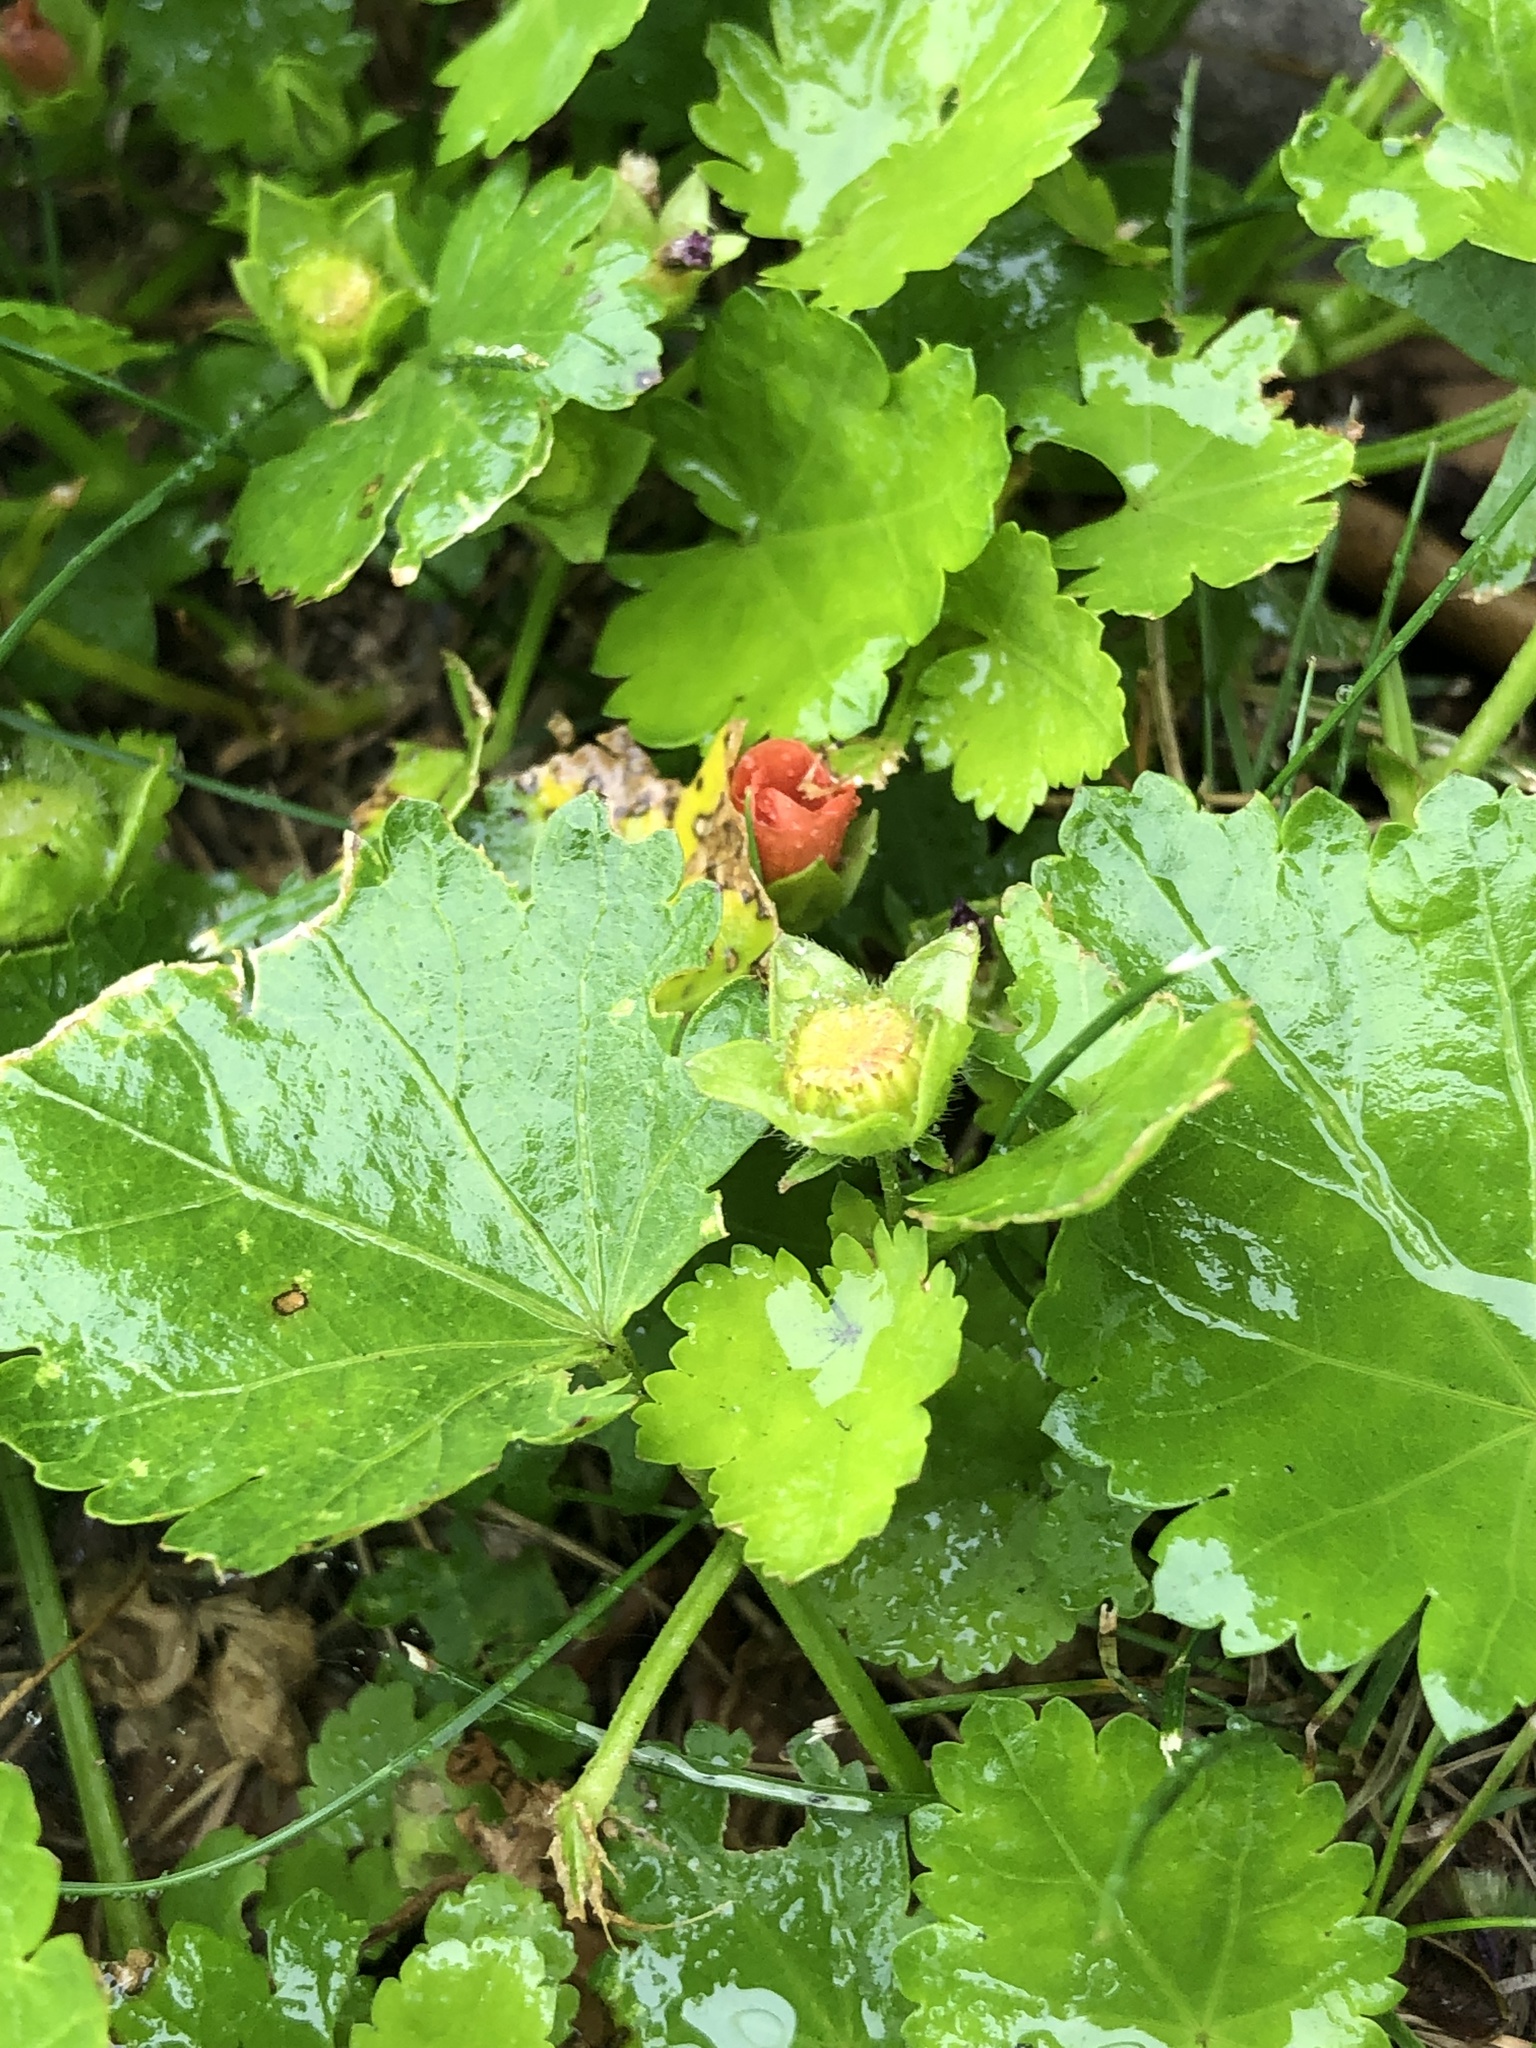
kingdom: Plantae
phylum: Tracheophyta
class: Magnoliopsida
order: Malvales
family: Malvaceae
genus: Modiola
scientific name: Modiola caroliniana
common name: Carolina bristlemallow
